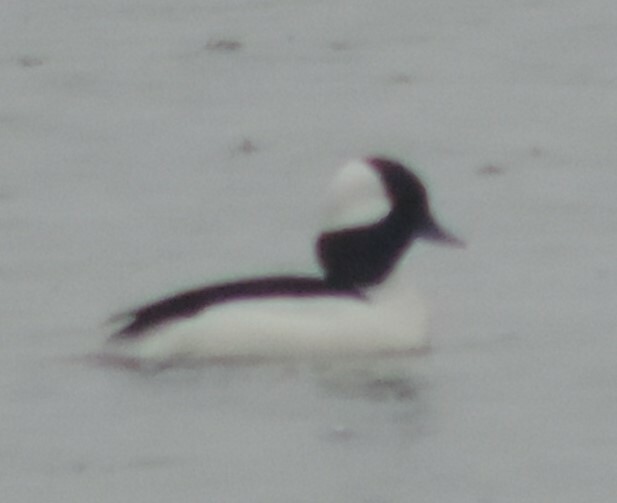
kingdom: Animalia
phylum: Chordata
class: Aves
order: Anseriformes
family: Anatidae
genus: Bucephala
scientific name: Bucephala albeola
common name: Bufflehead
